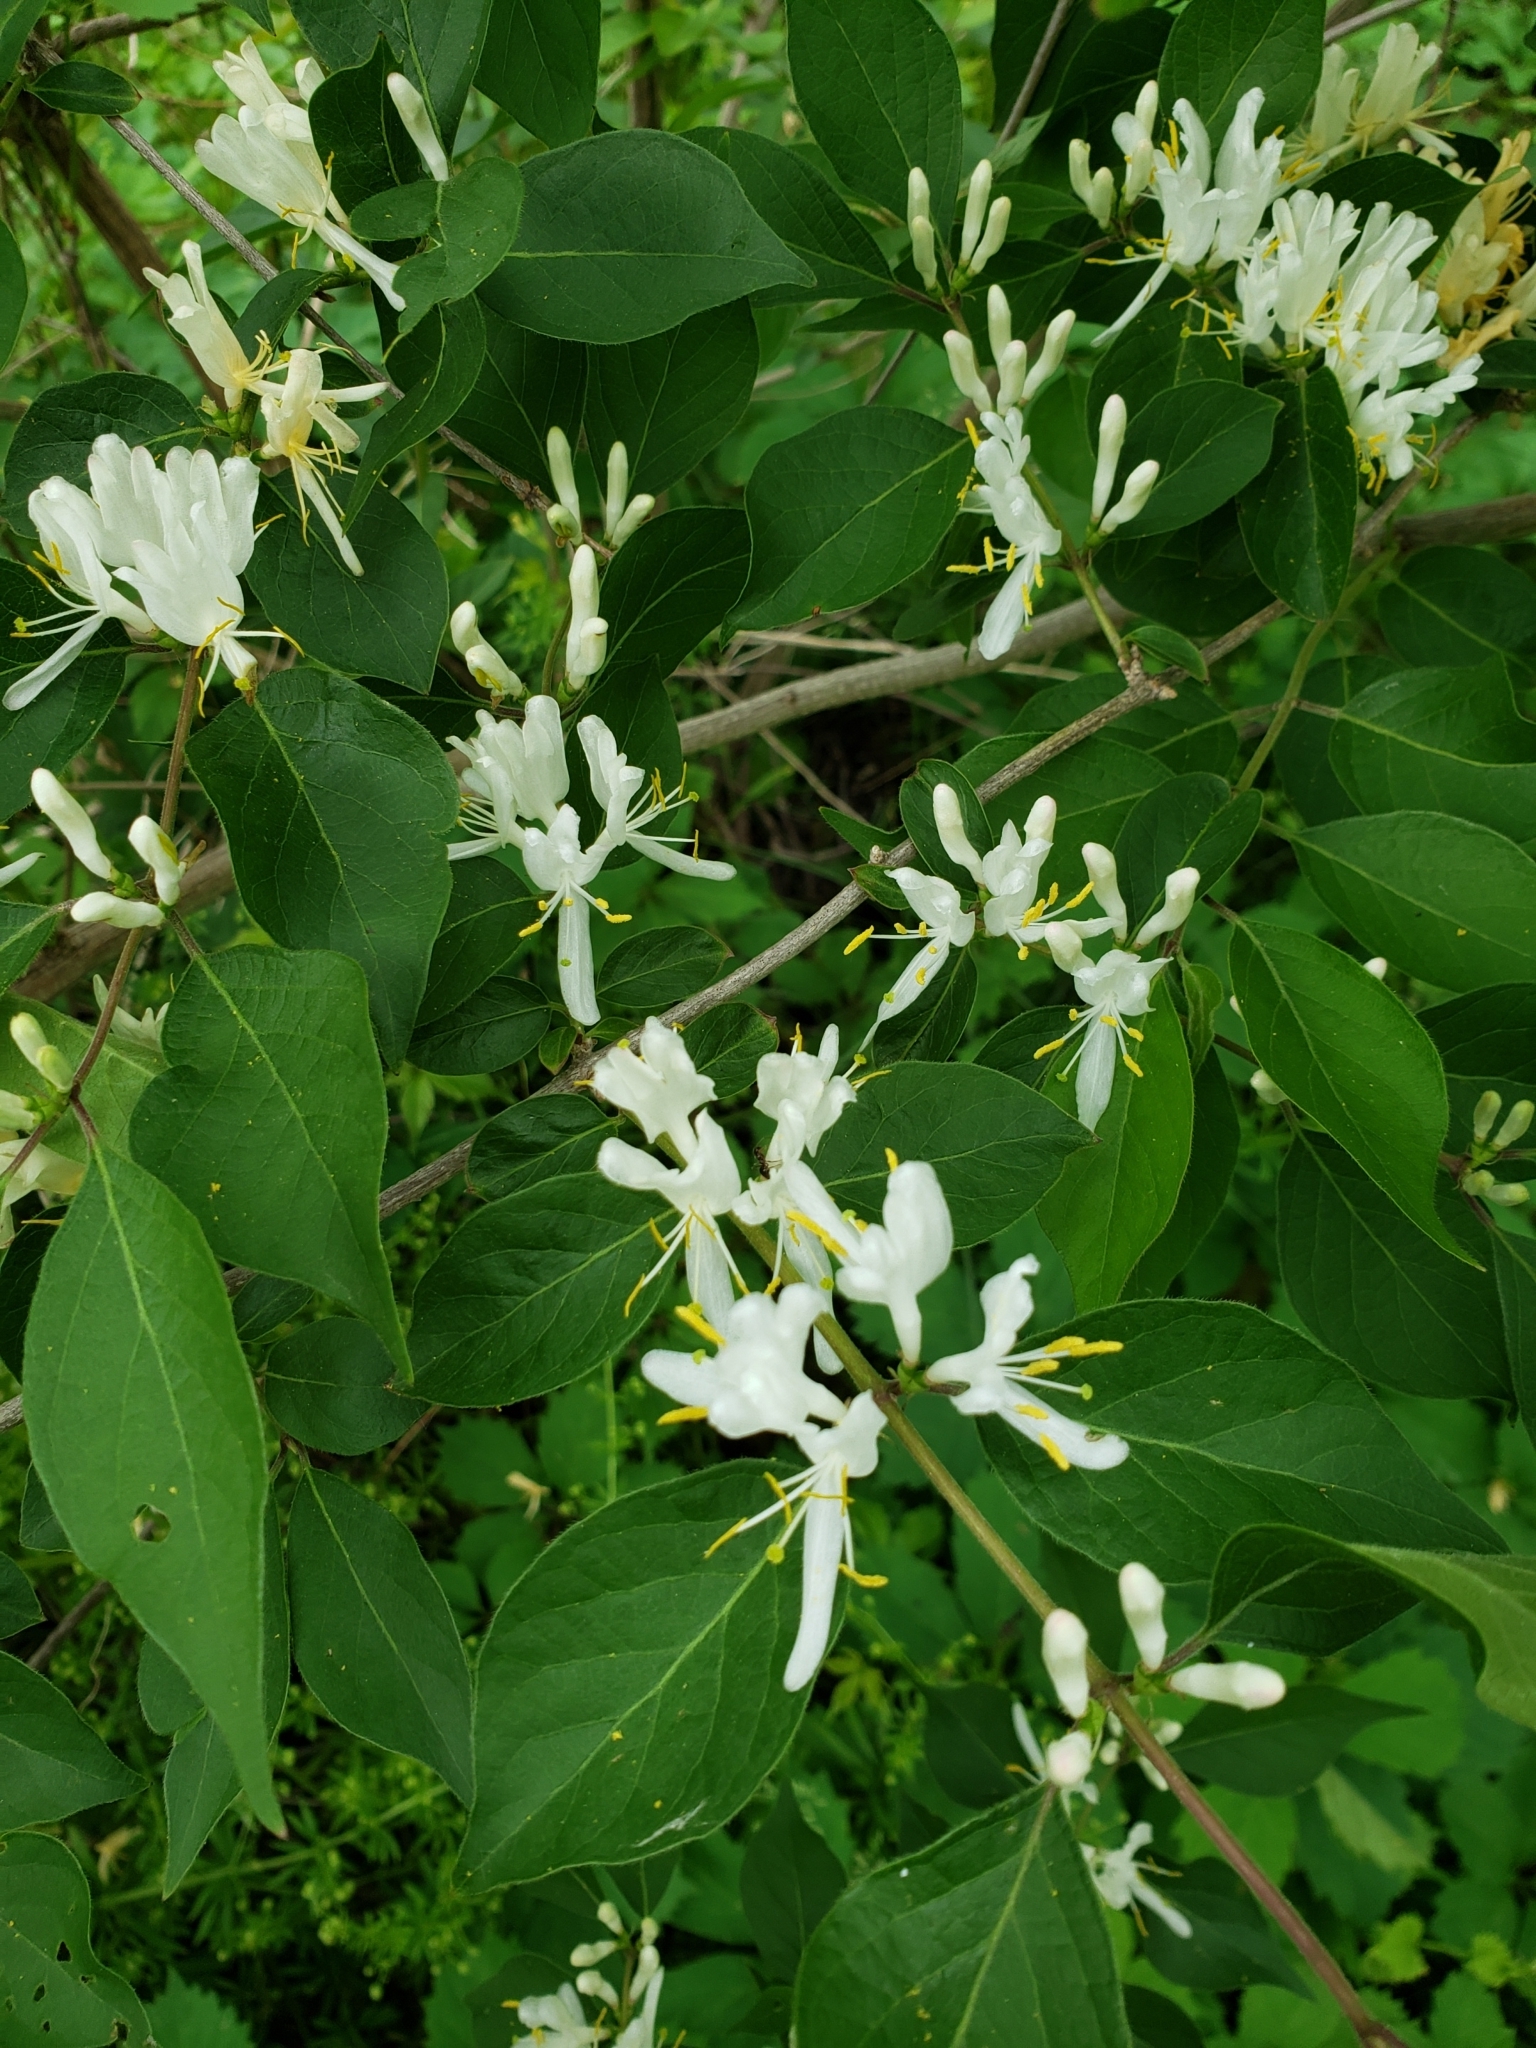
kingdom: Plantae
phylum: Tracheophyta
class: Magnoliopsida
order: Dipsacales
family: Caprifoliaceae
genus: Lonicera
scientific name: Lonicera maackii
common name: Amur honeysuckle
